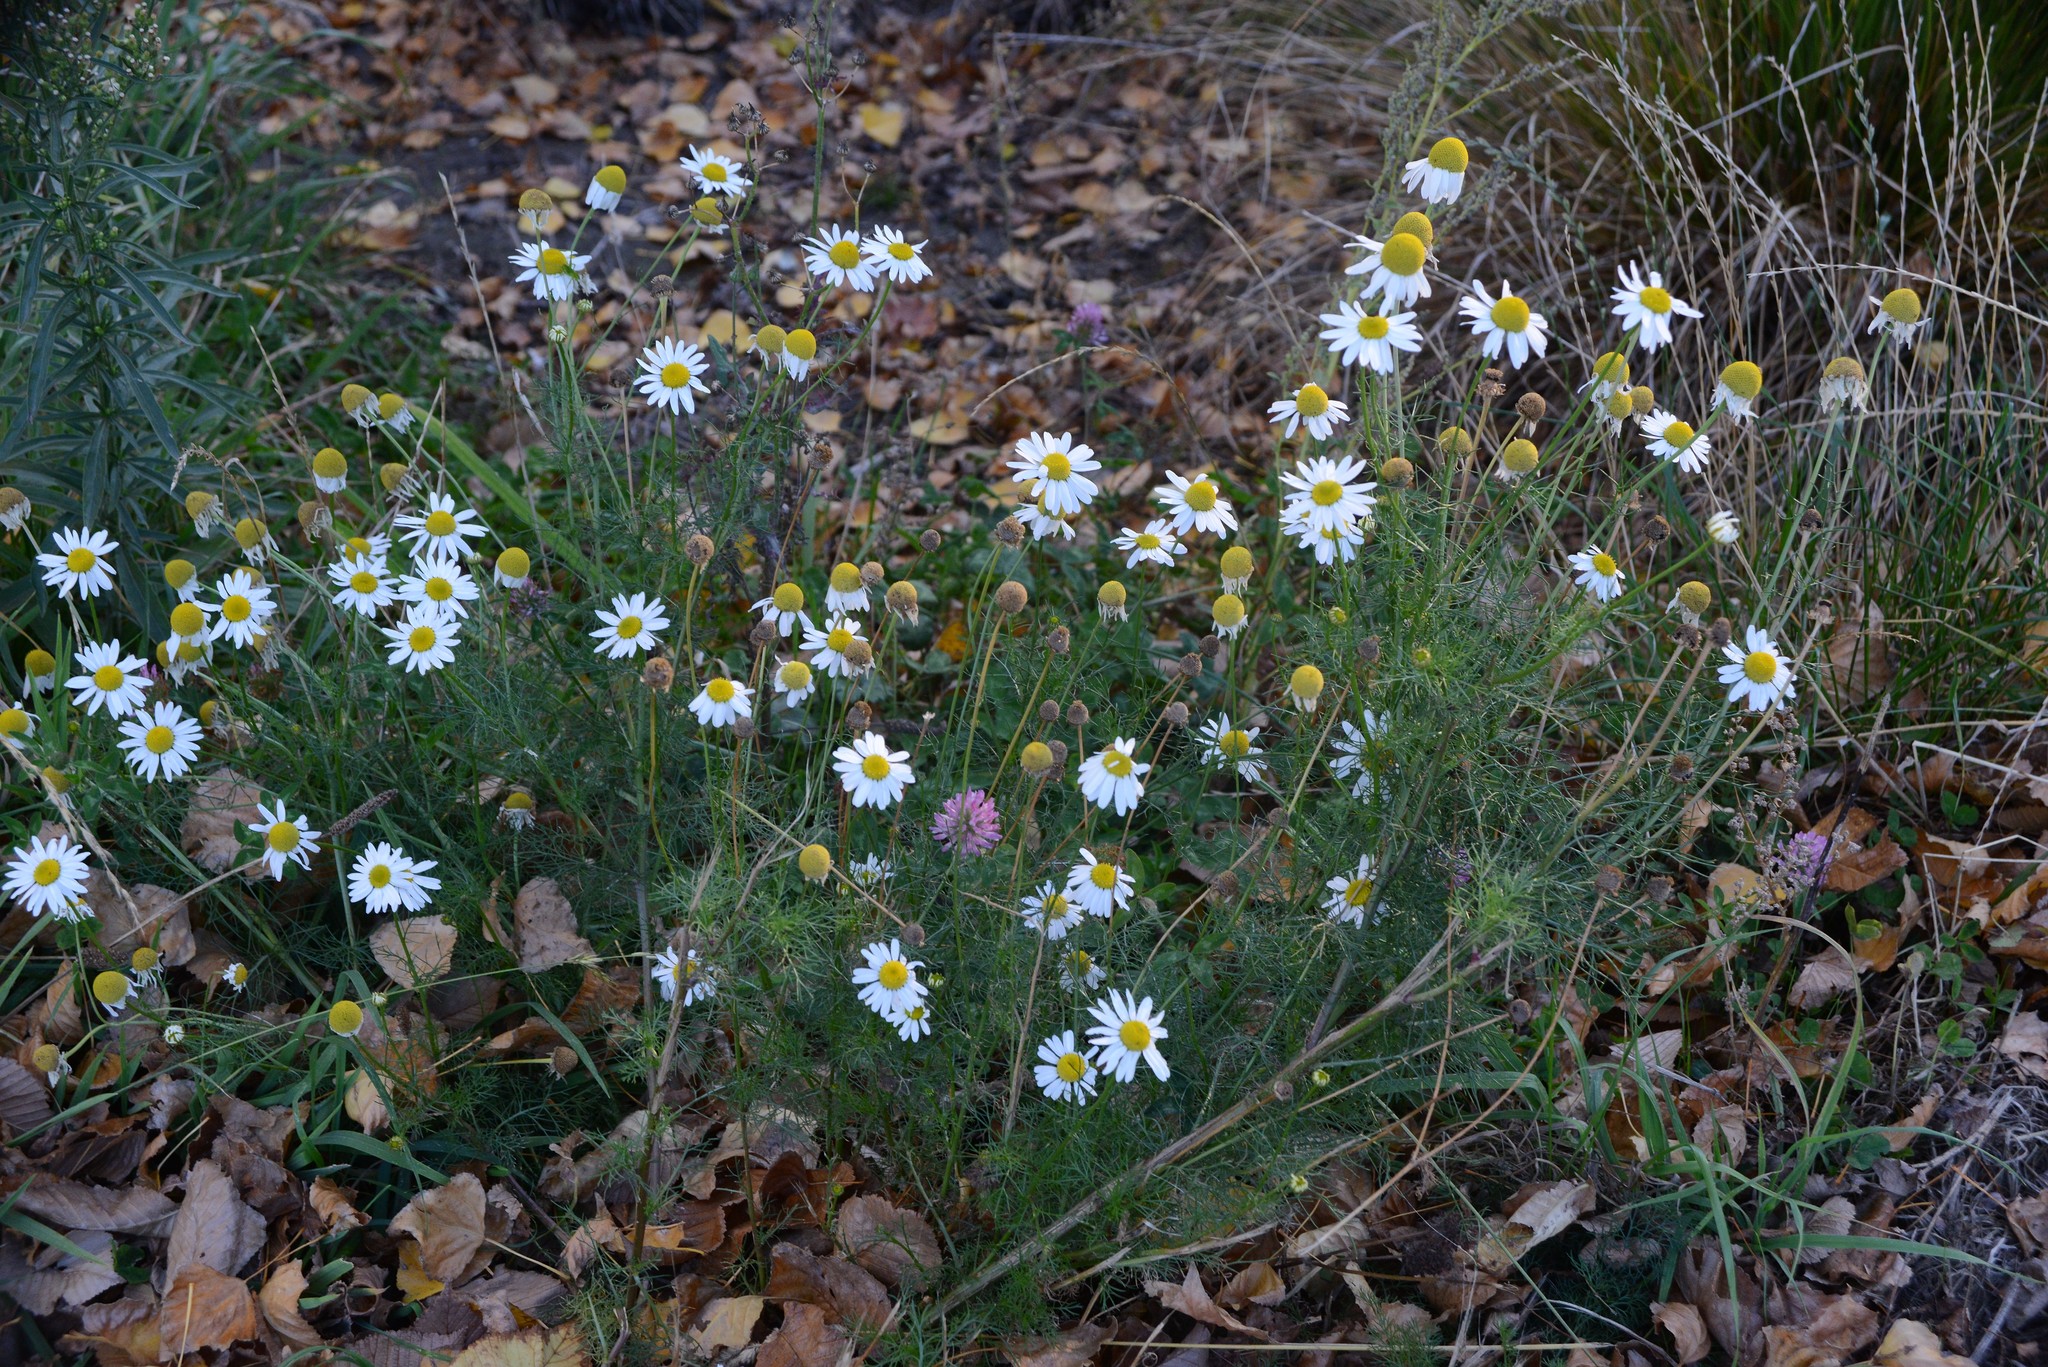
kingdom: Plantae
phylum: Tracheophyta
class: Magnoliopsida
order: Asterales
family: Asteraceae
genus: Tripleurospermum
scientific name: Tripleurospermum inodorum
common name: Scentless mayweed
